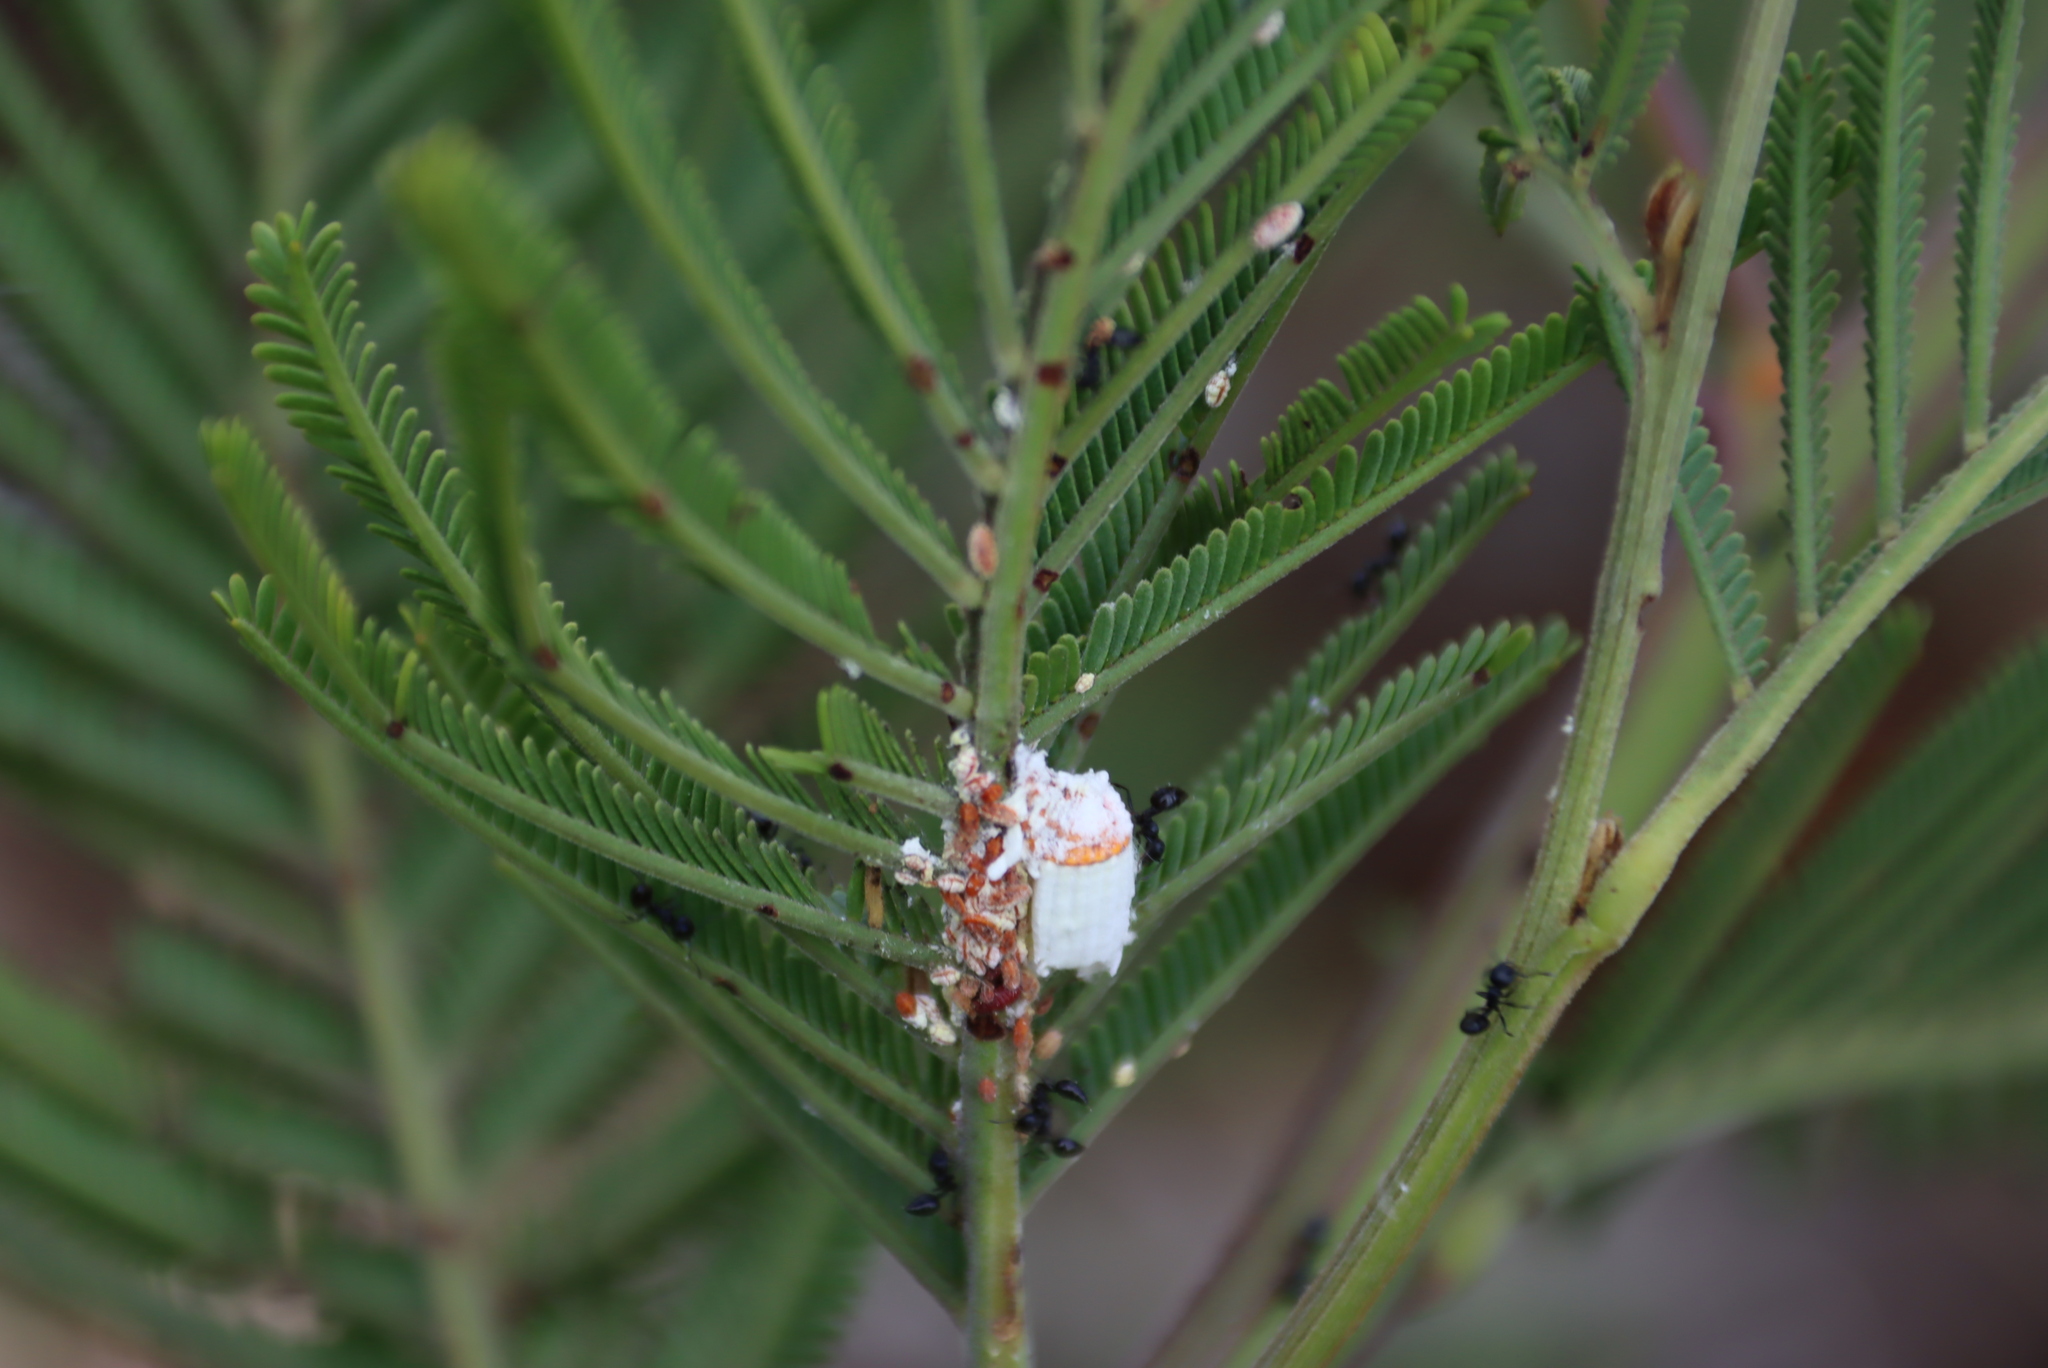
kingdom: Plantae
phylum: Tracheophyta
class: Magnoliopsida
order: Fabales
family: Fabaceae
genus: Acacia
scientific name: Acacia mearnsii
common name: Black wattle
